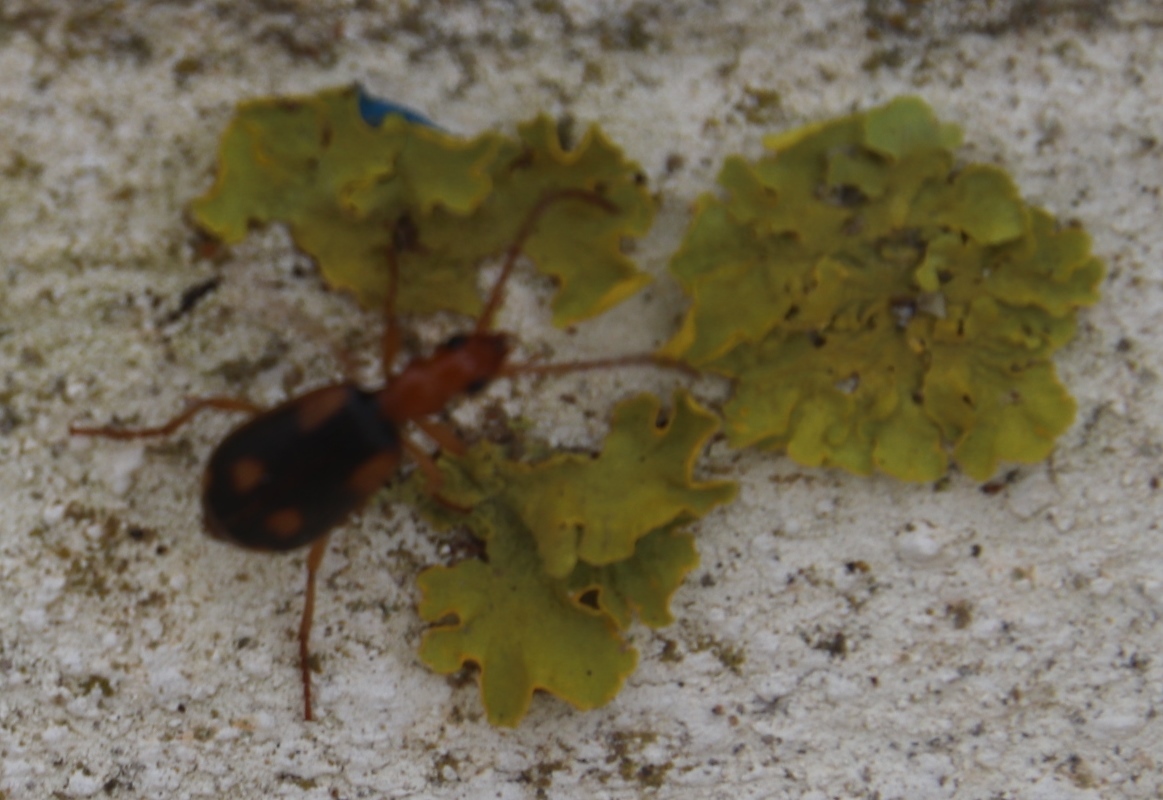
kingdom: Fungi
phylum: Ascomycota
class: Lecanoromycetes
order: Teloschistales
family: Teloschistaceae
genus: Xanthoria
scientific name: Xanthoria parietina
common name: Common orange lichen
